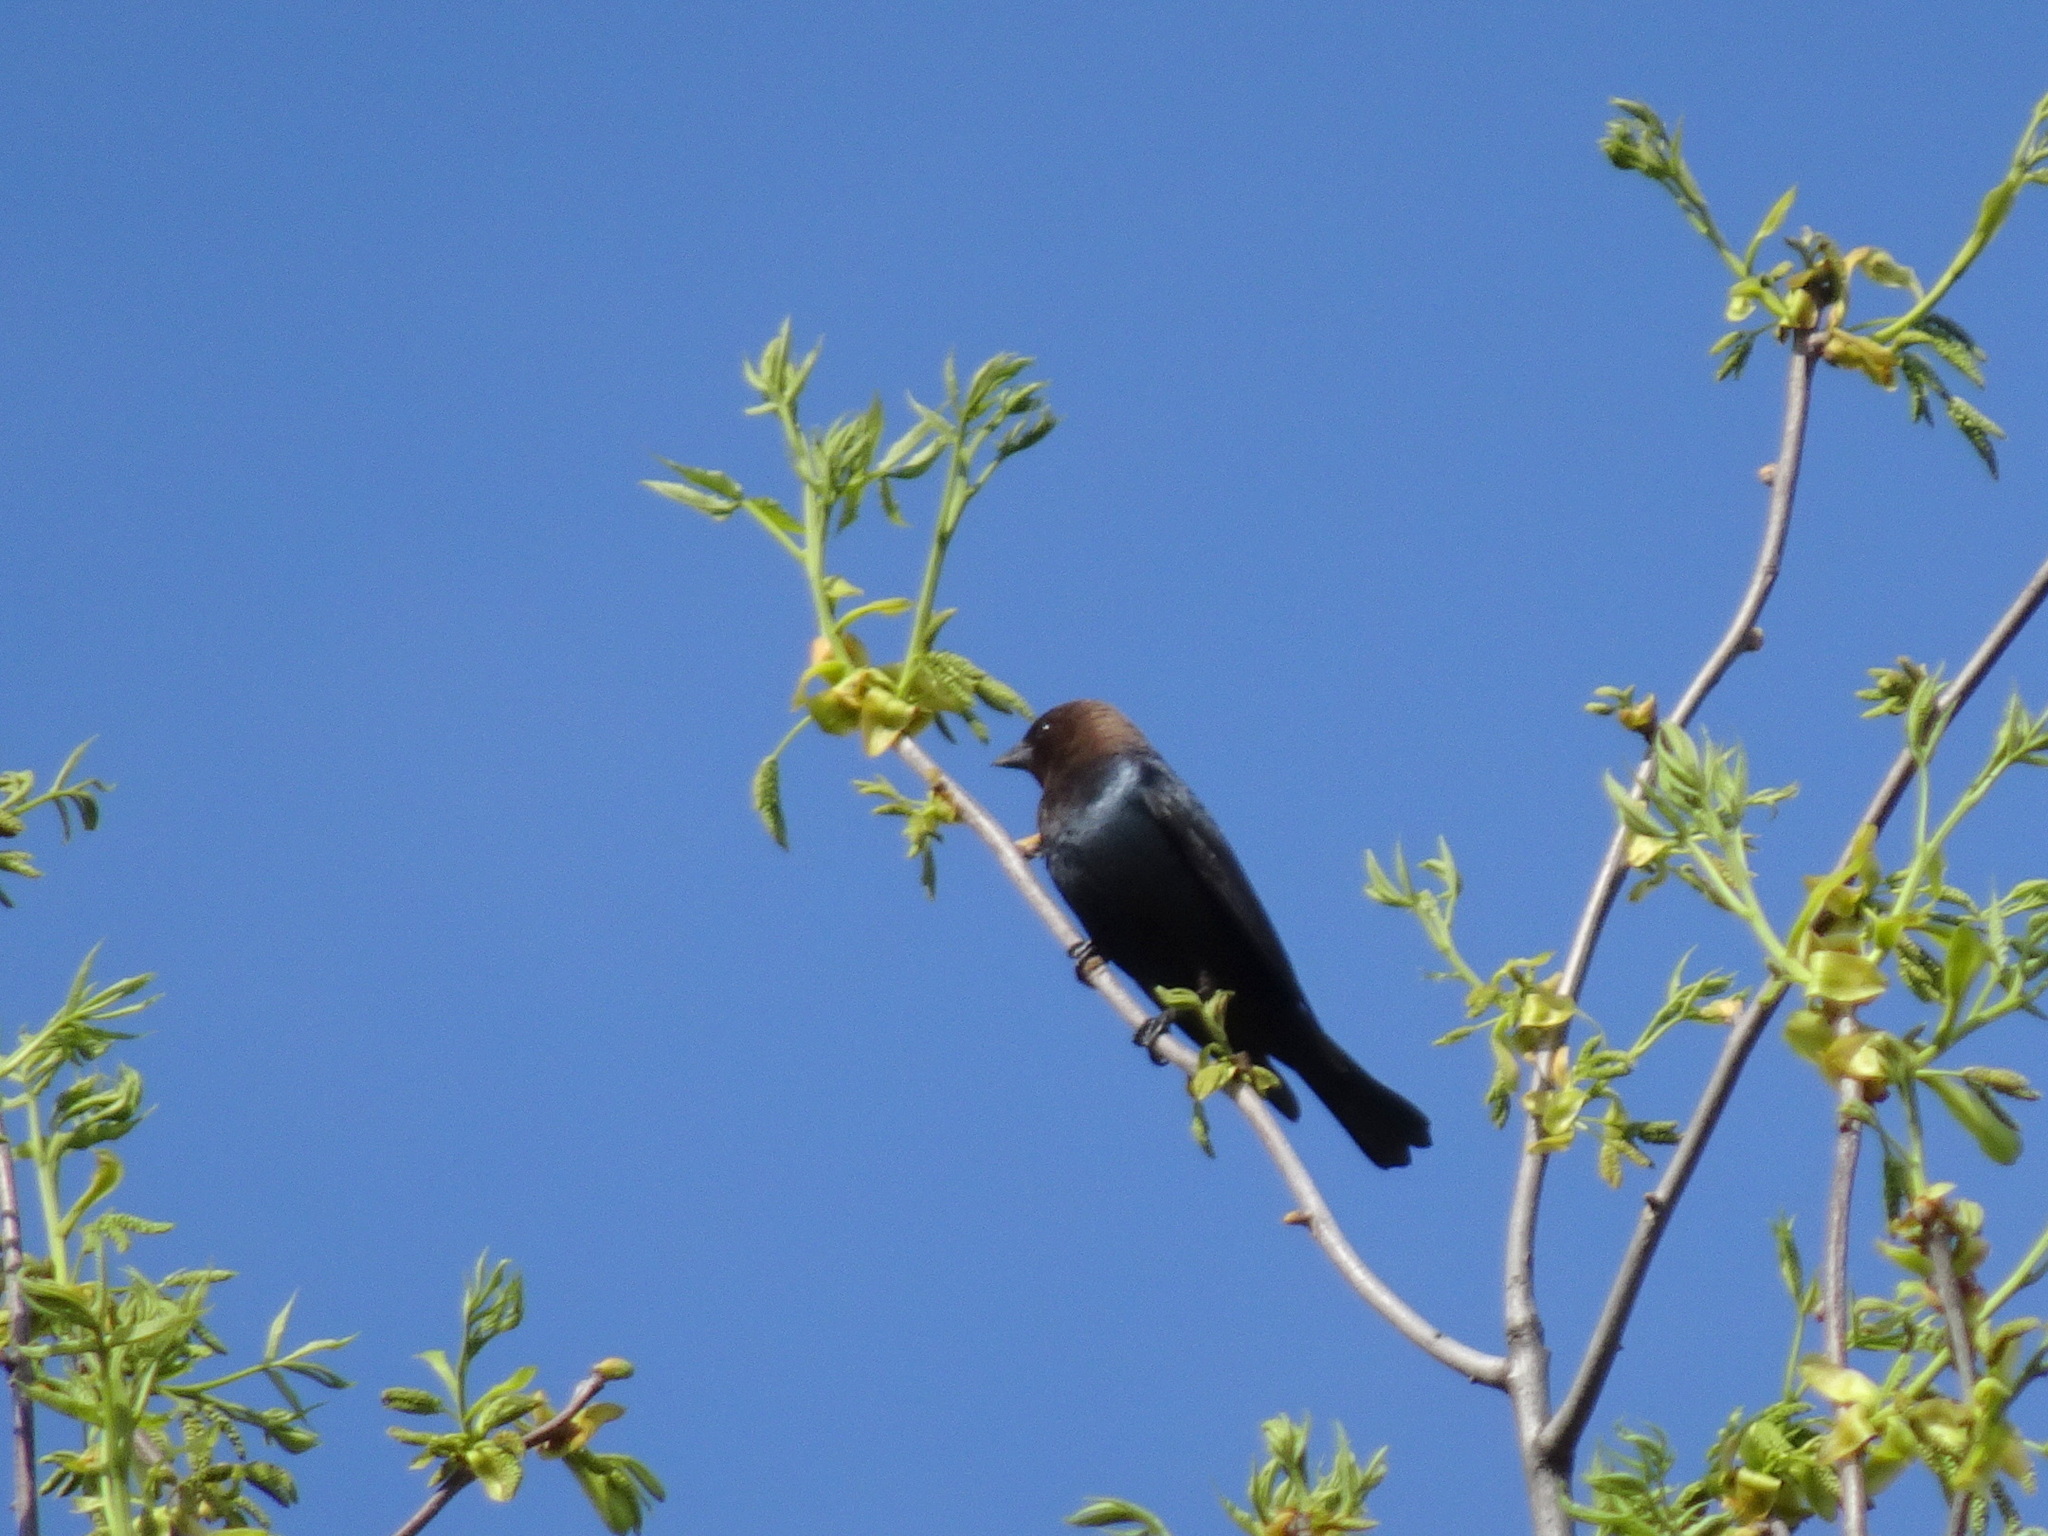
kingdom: Animalia
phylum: Chordata
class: Aves
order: Passeriformes
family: Icteridae
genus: Molothrus
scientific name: Molothrus ater
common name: Brown-headed cowbird
